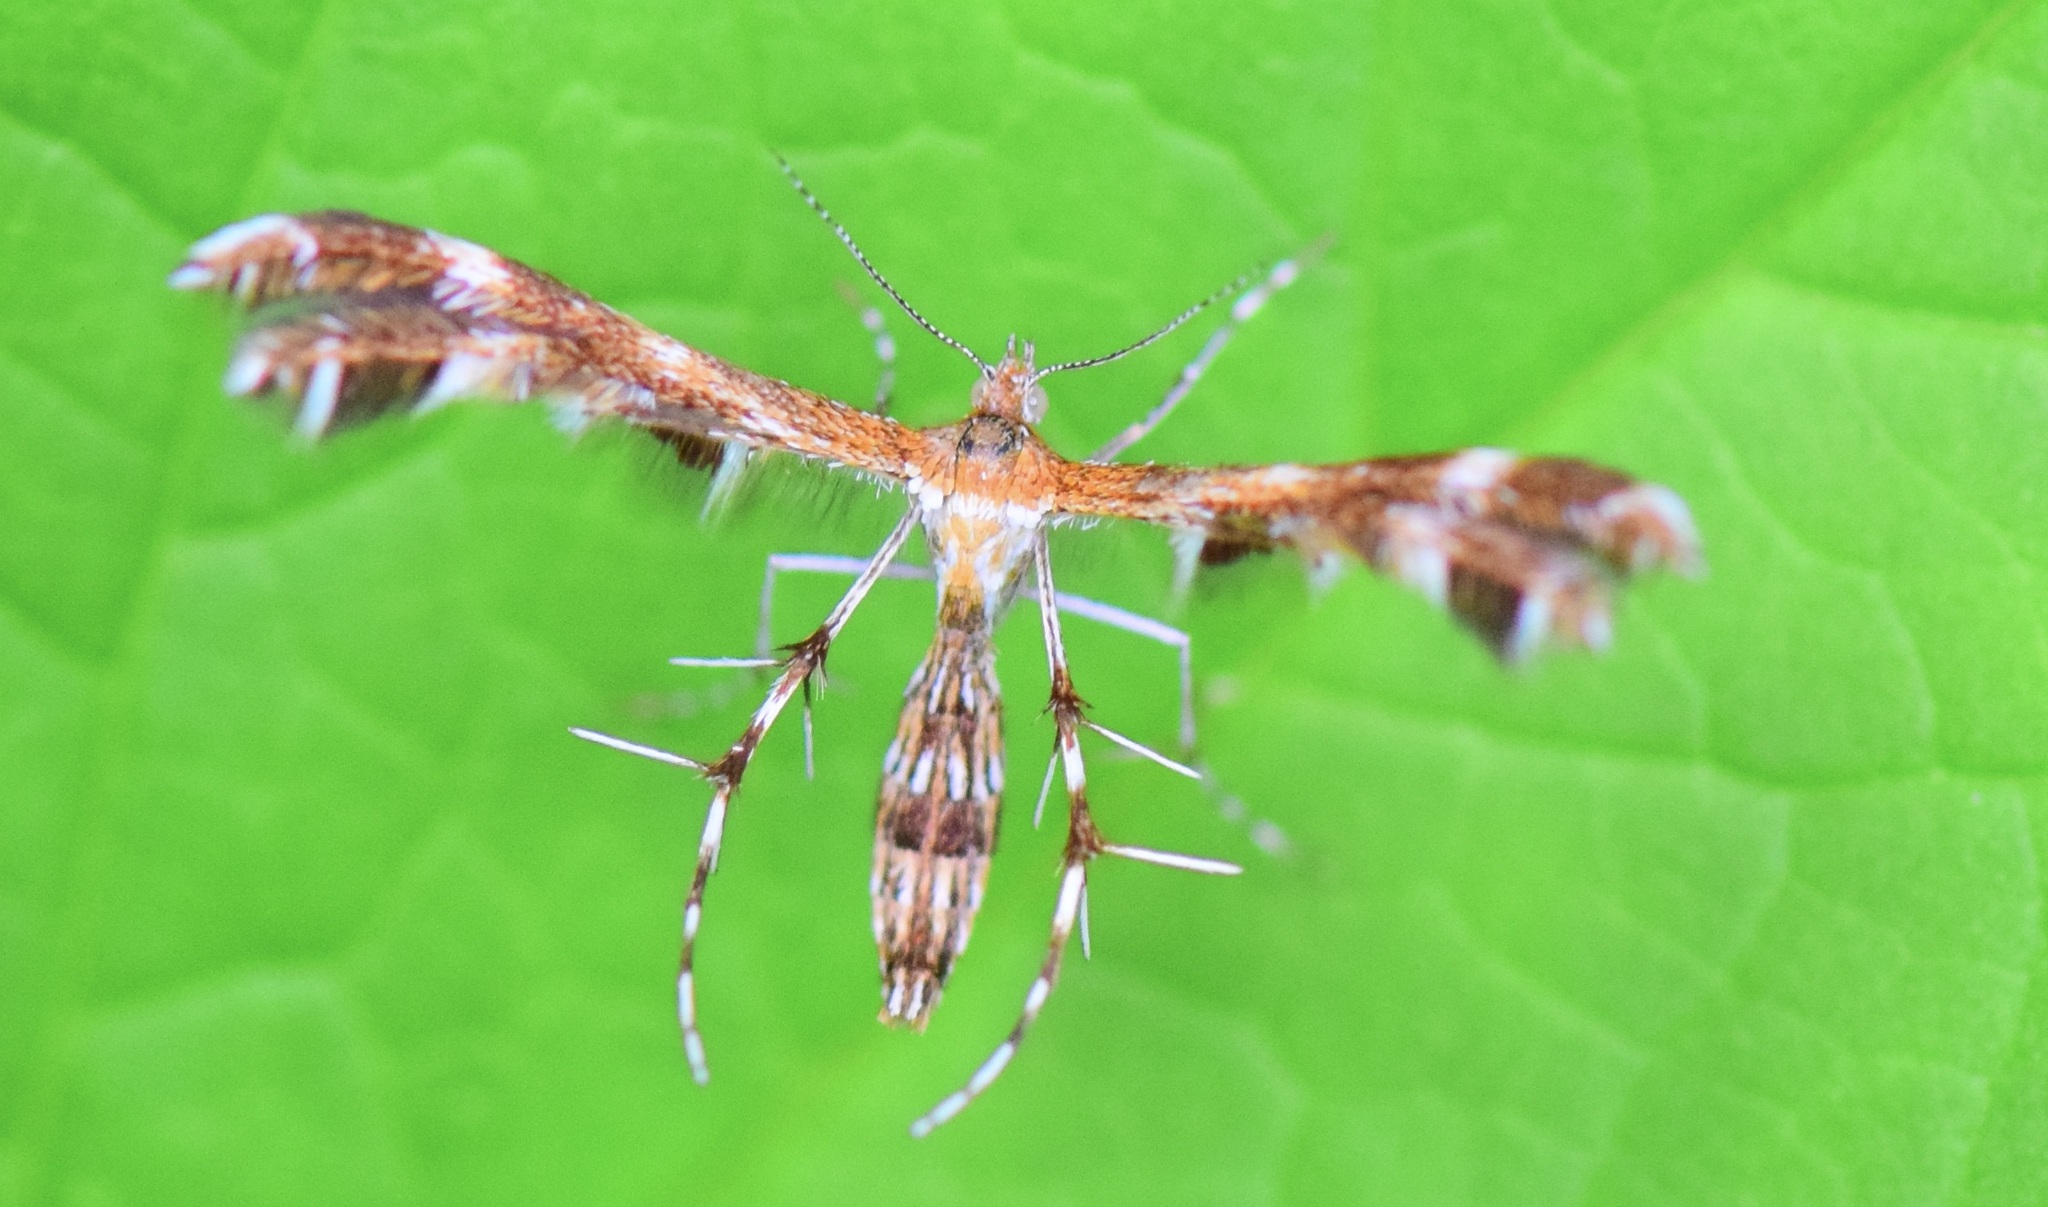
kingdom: Animalia
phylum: Arthropoda
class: Insecta
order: Lepidoptera
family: Pterophoridae
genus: Dejongia
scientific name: Dejongia lobidactylus
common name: Lobed plume moth
